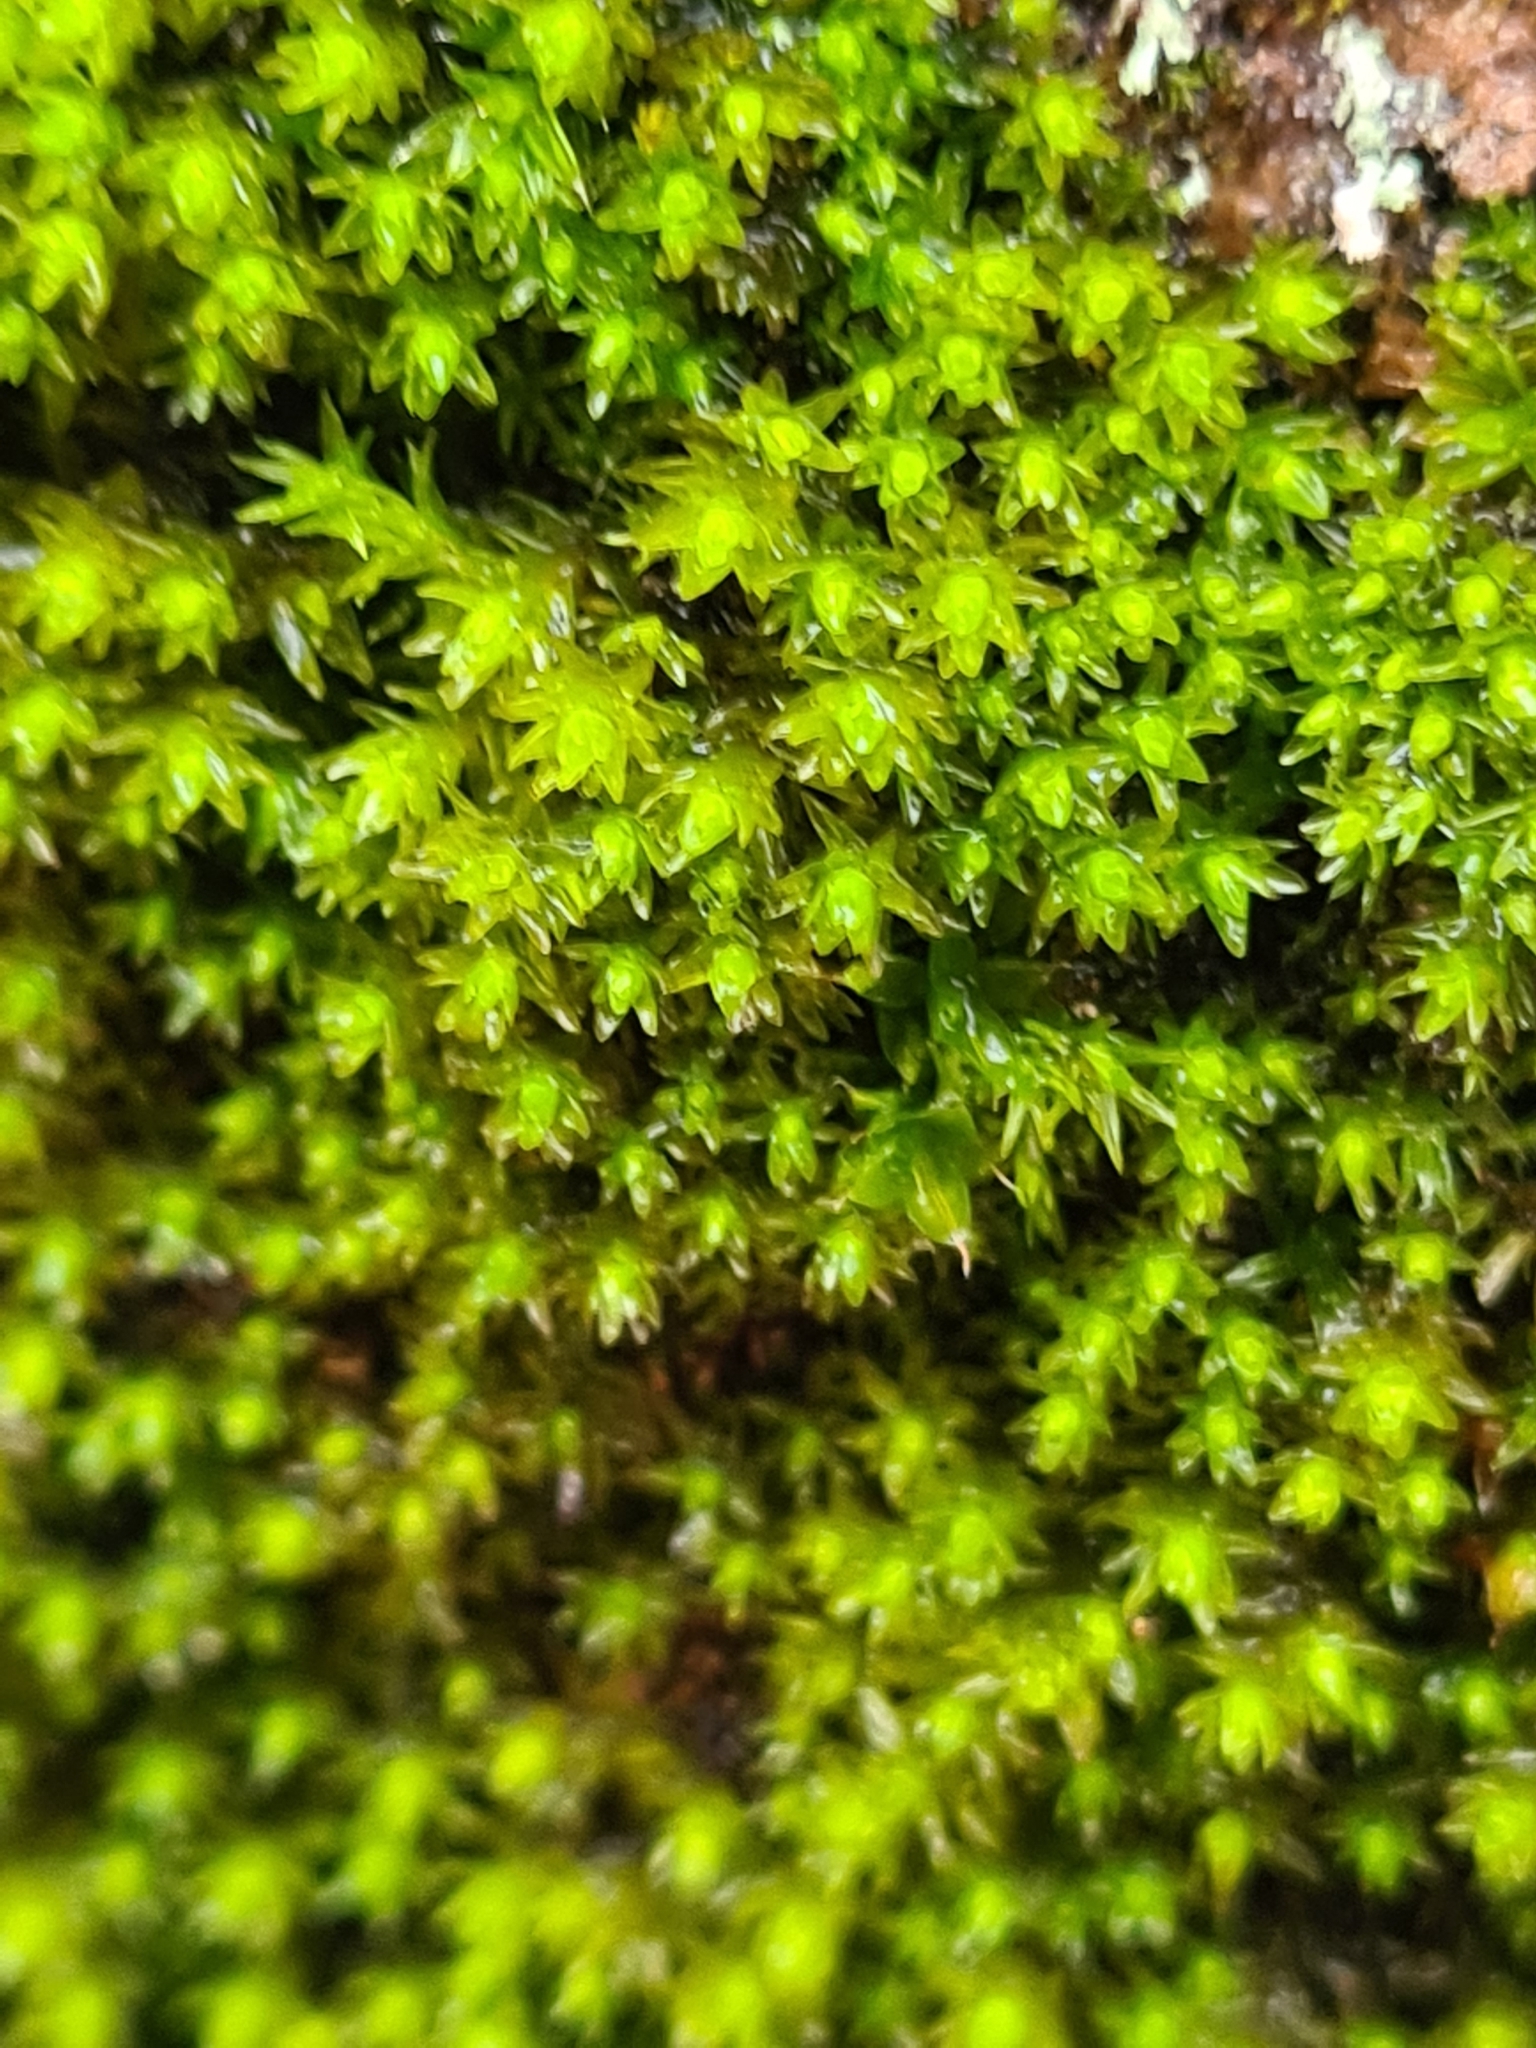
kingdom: Plantae
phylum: Bryophyta
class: Bryopsida
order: Orthotrichales
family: Orthotrichaceae
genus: Nyholmiella
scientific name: Nyholmiella obtusifolia
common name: Blunt-leaved bristle-moss
